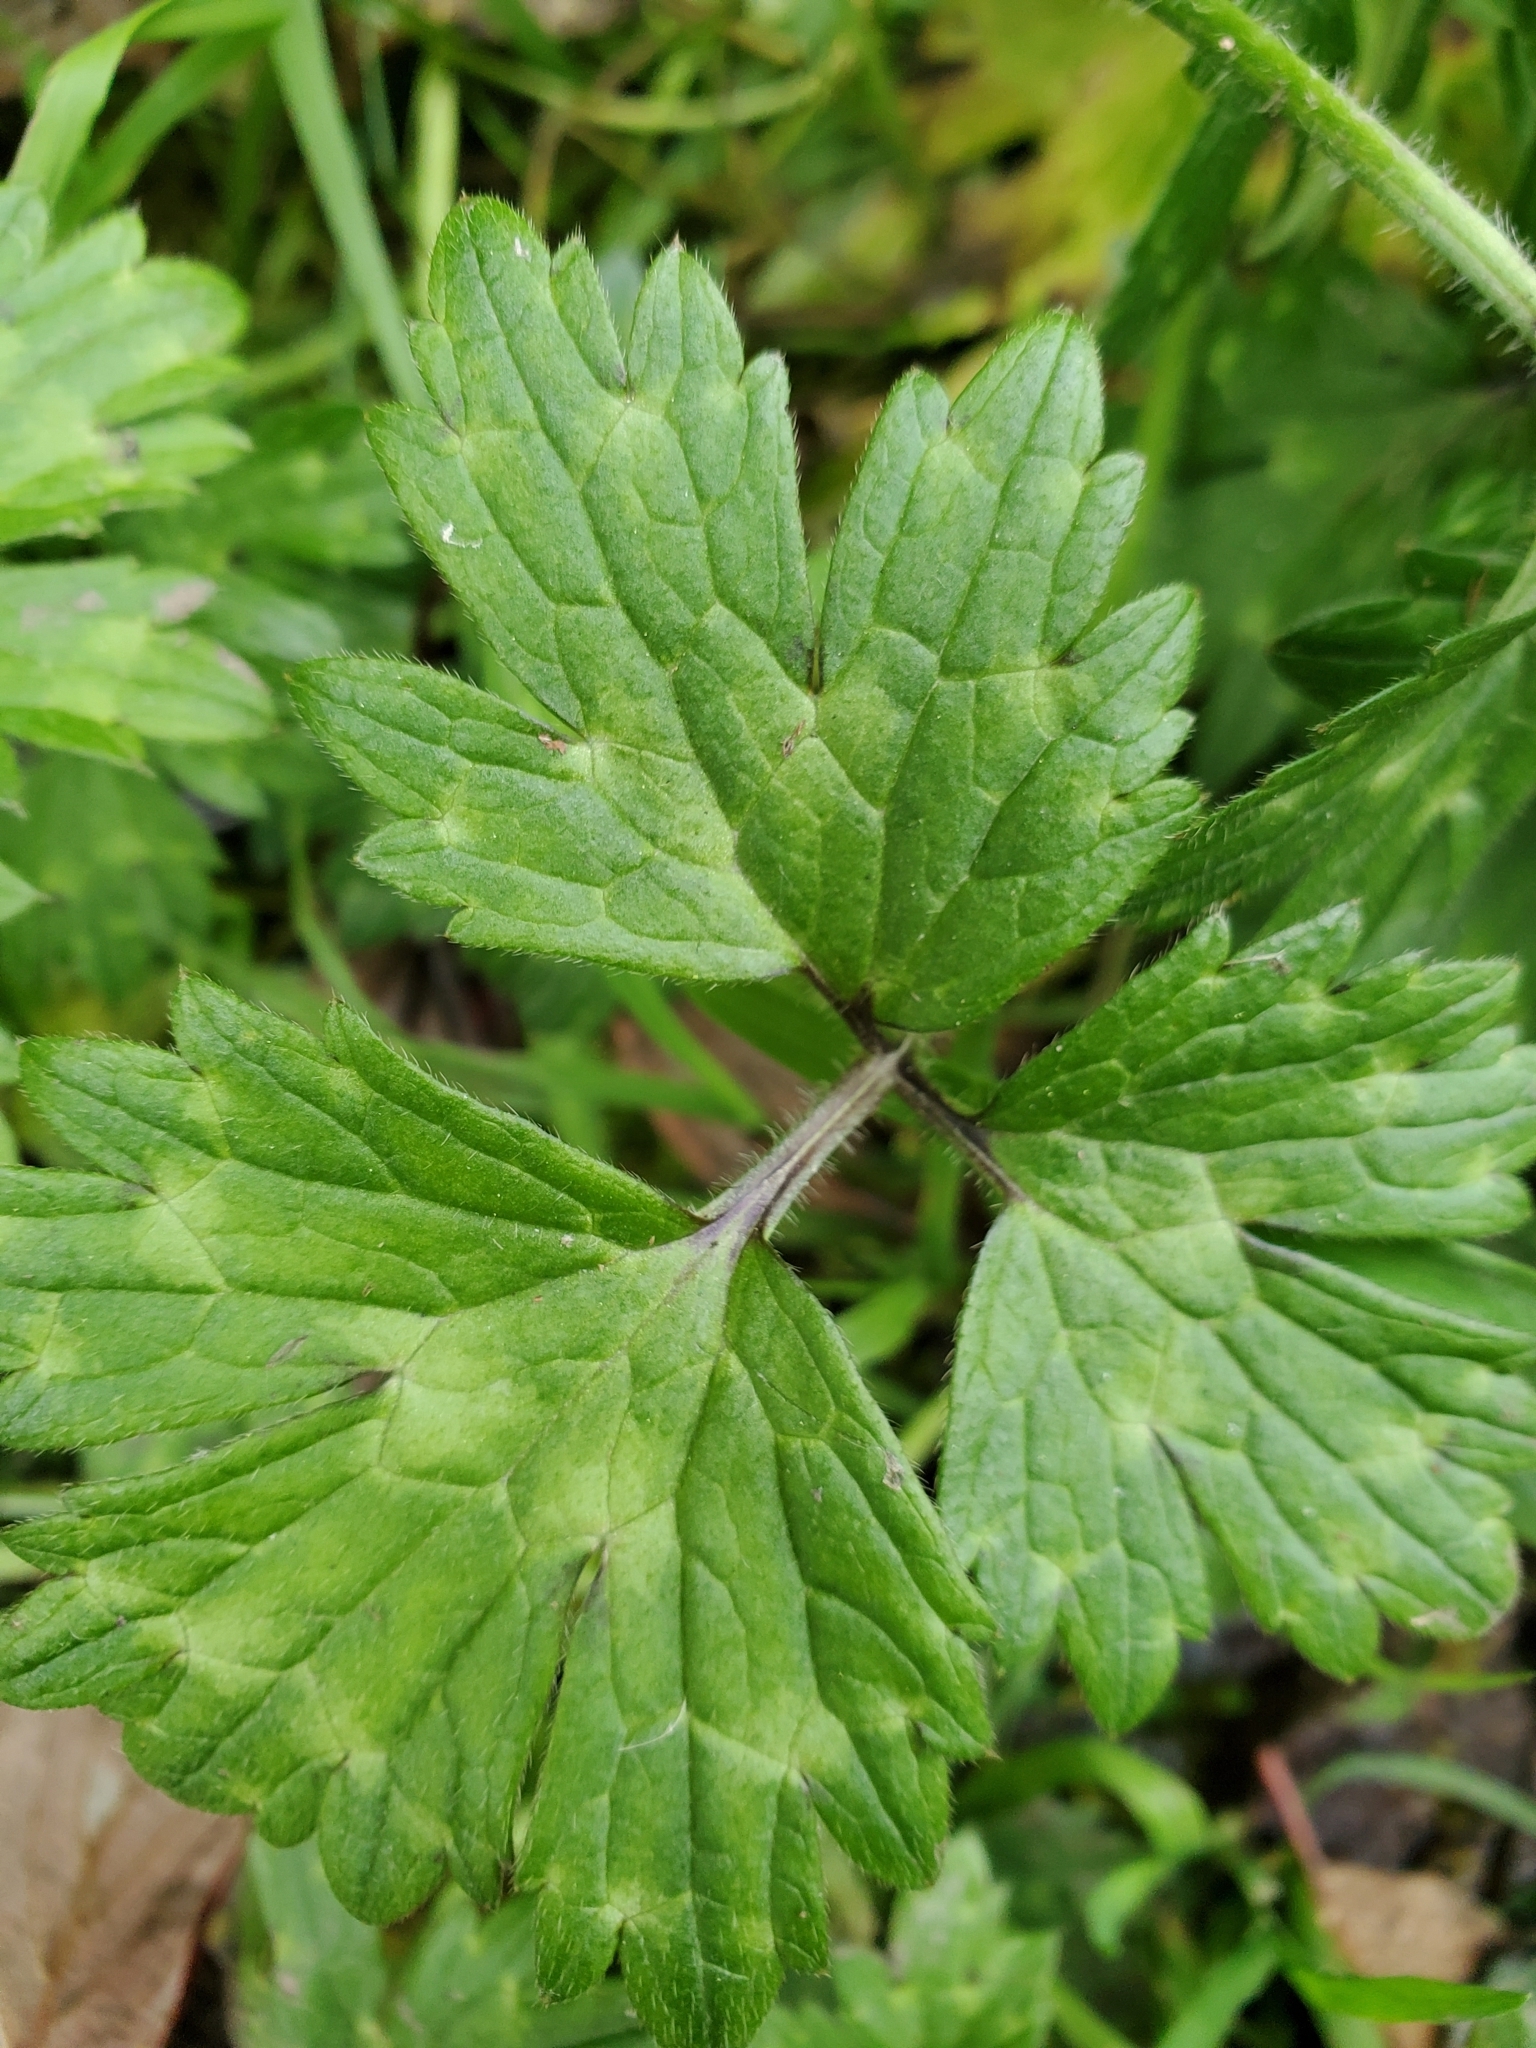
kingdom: Plantae
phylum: Tracheophyta
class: Magnoliopsida
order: Ranunculales
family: Ranunculaceae
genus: Ranunculus
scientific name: Ranunculus repens
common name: Creeping buttercup
